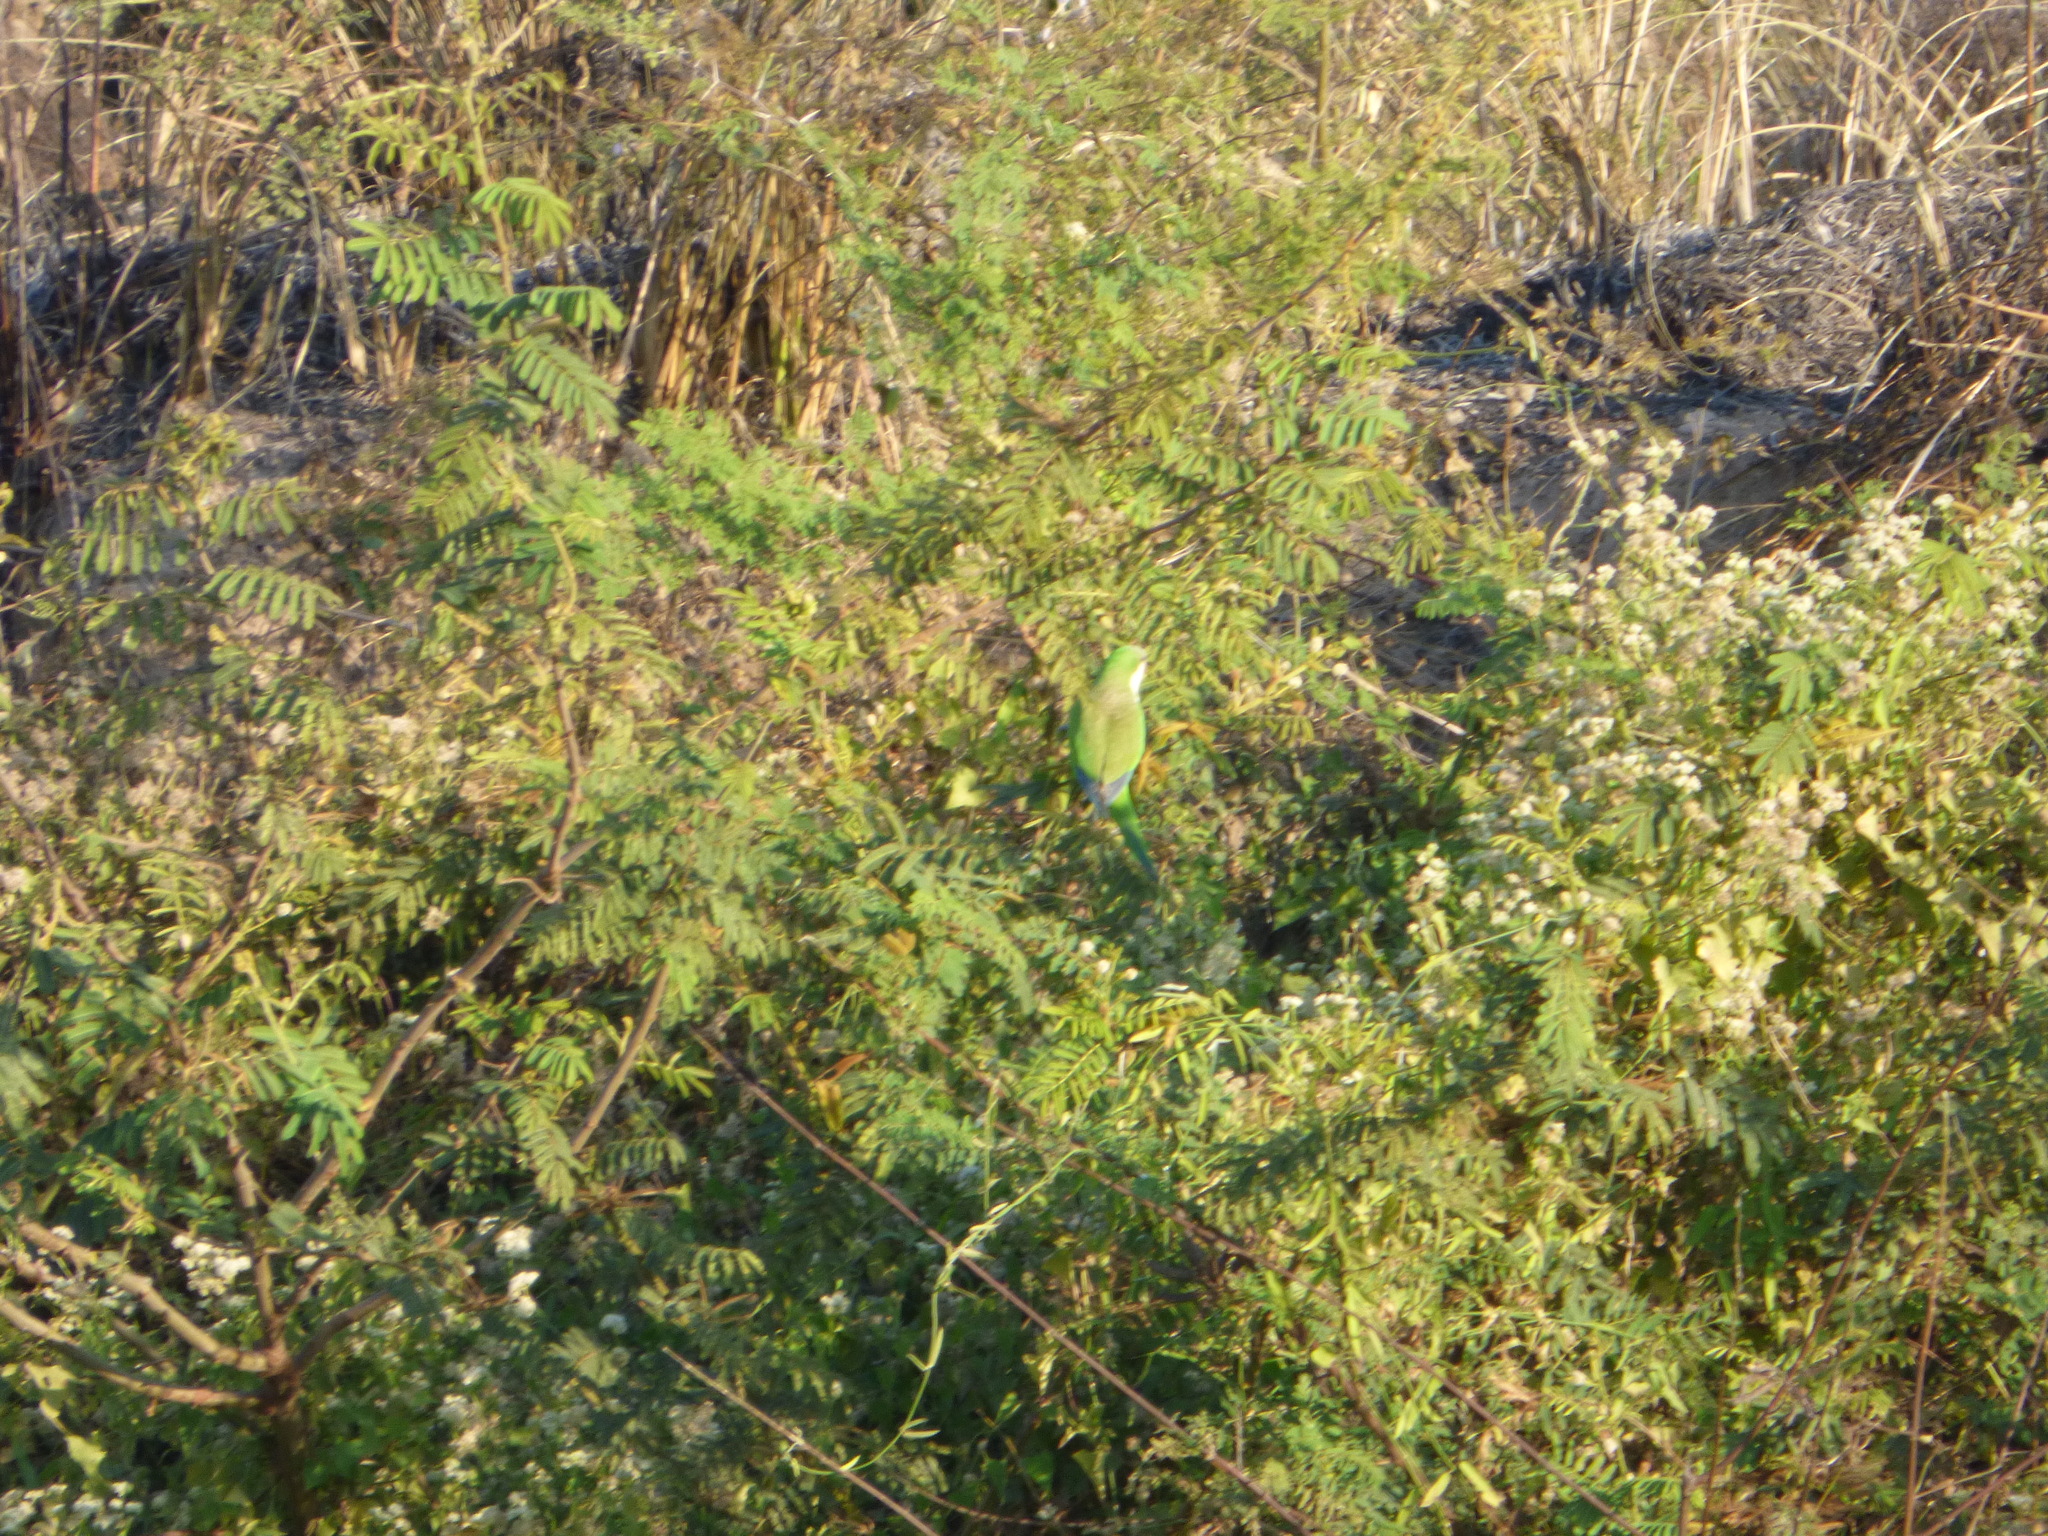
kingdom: Animalia
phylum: Chordata
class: Aves
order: Psittaciformes
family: Psittacidae
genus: Myiopsitta
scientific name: Myiopsitta monachus
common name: Monk parakeet
